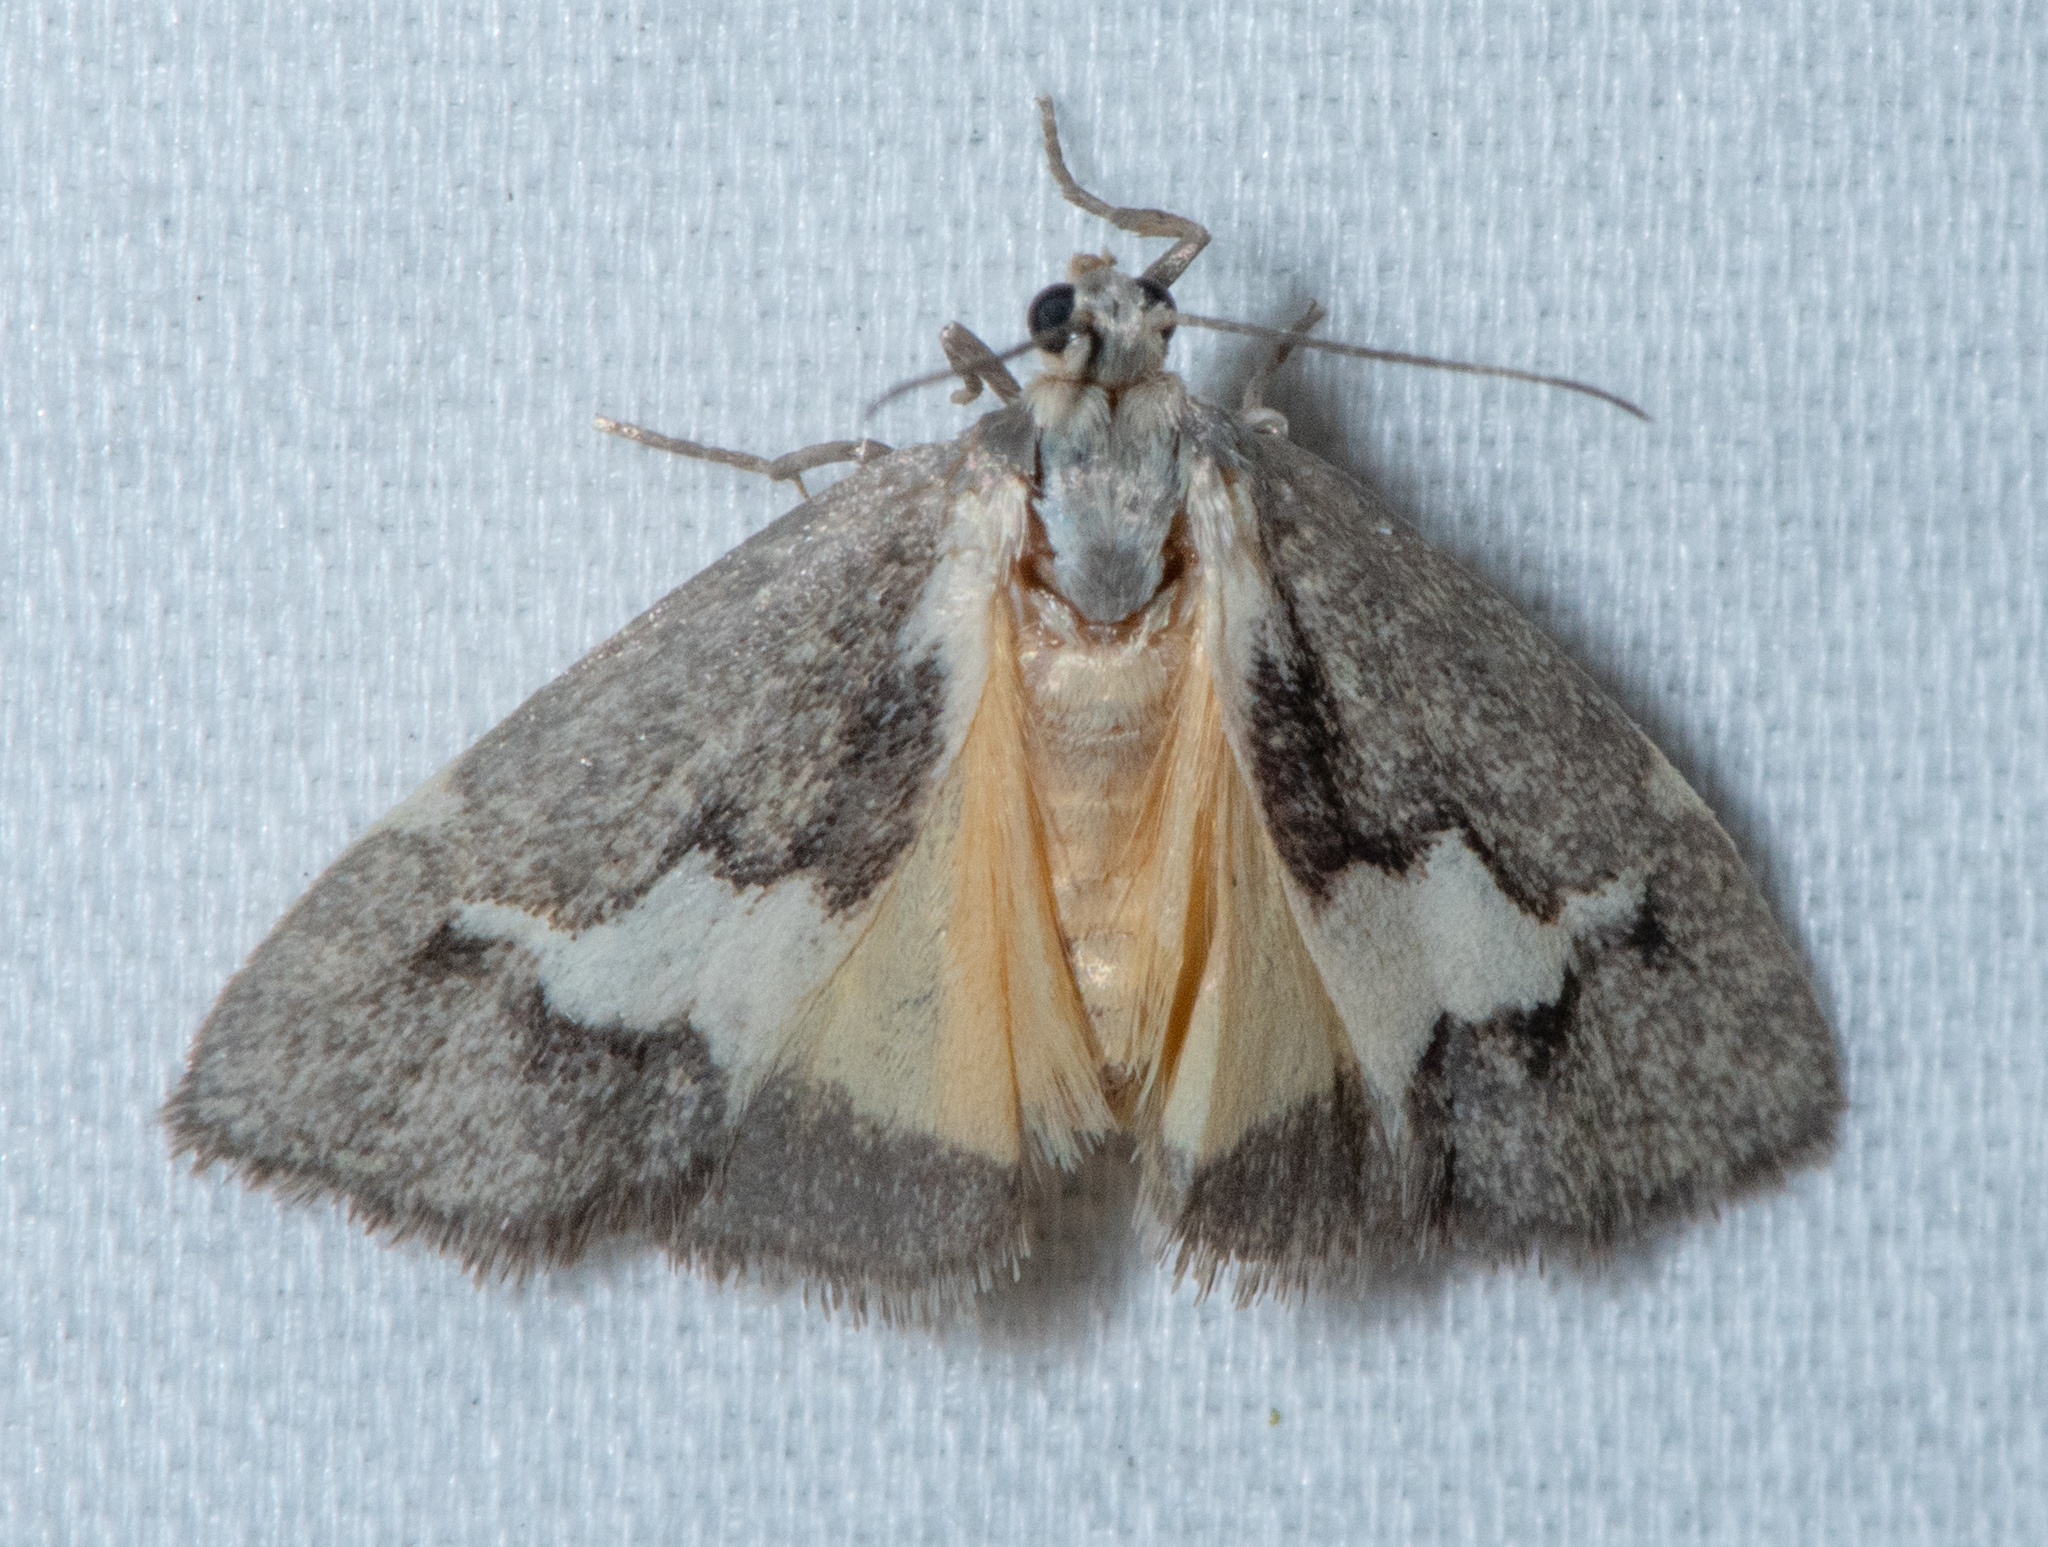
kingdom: Animalia
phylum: Arthropoda
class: Insecta
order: Lepidoptera
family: Erebidae
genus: Cisthene
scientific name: Cisthene deserta
